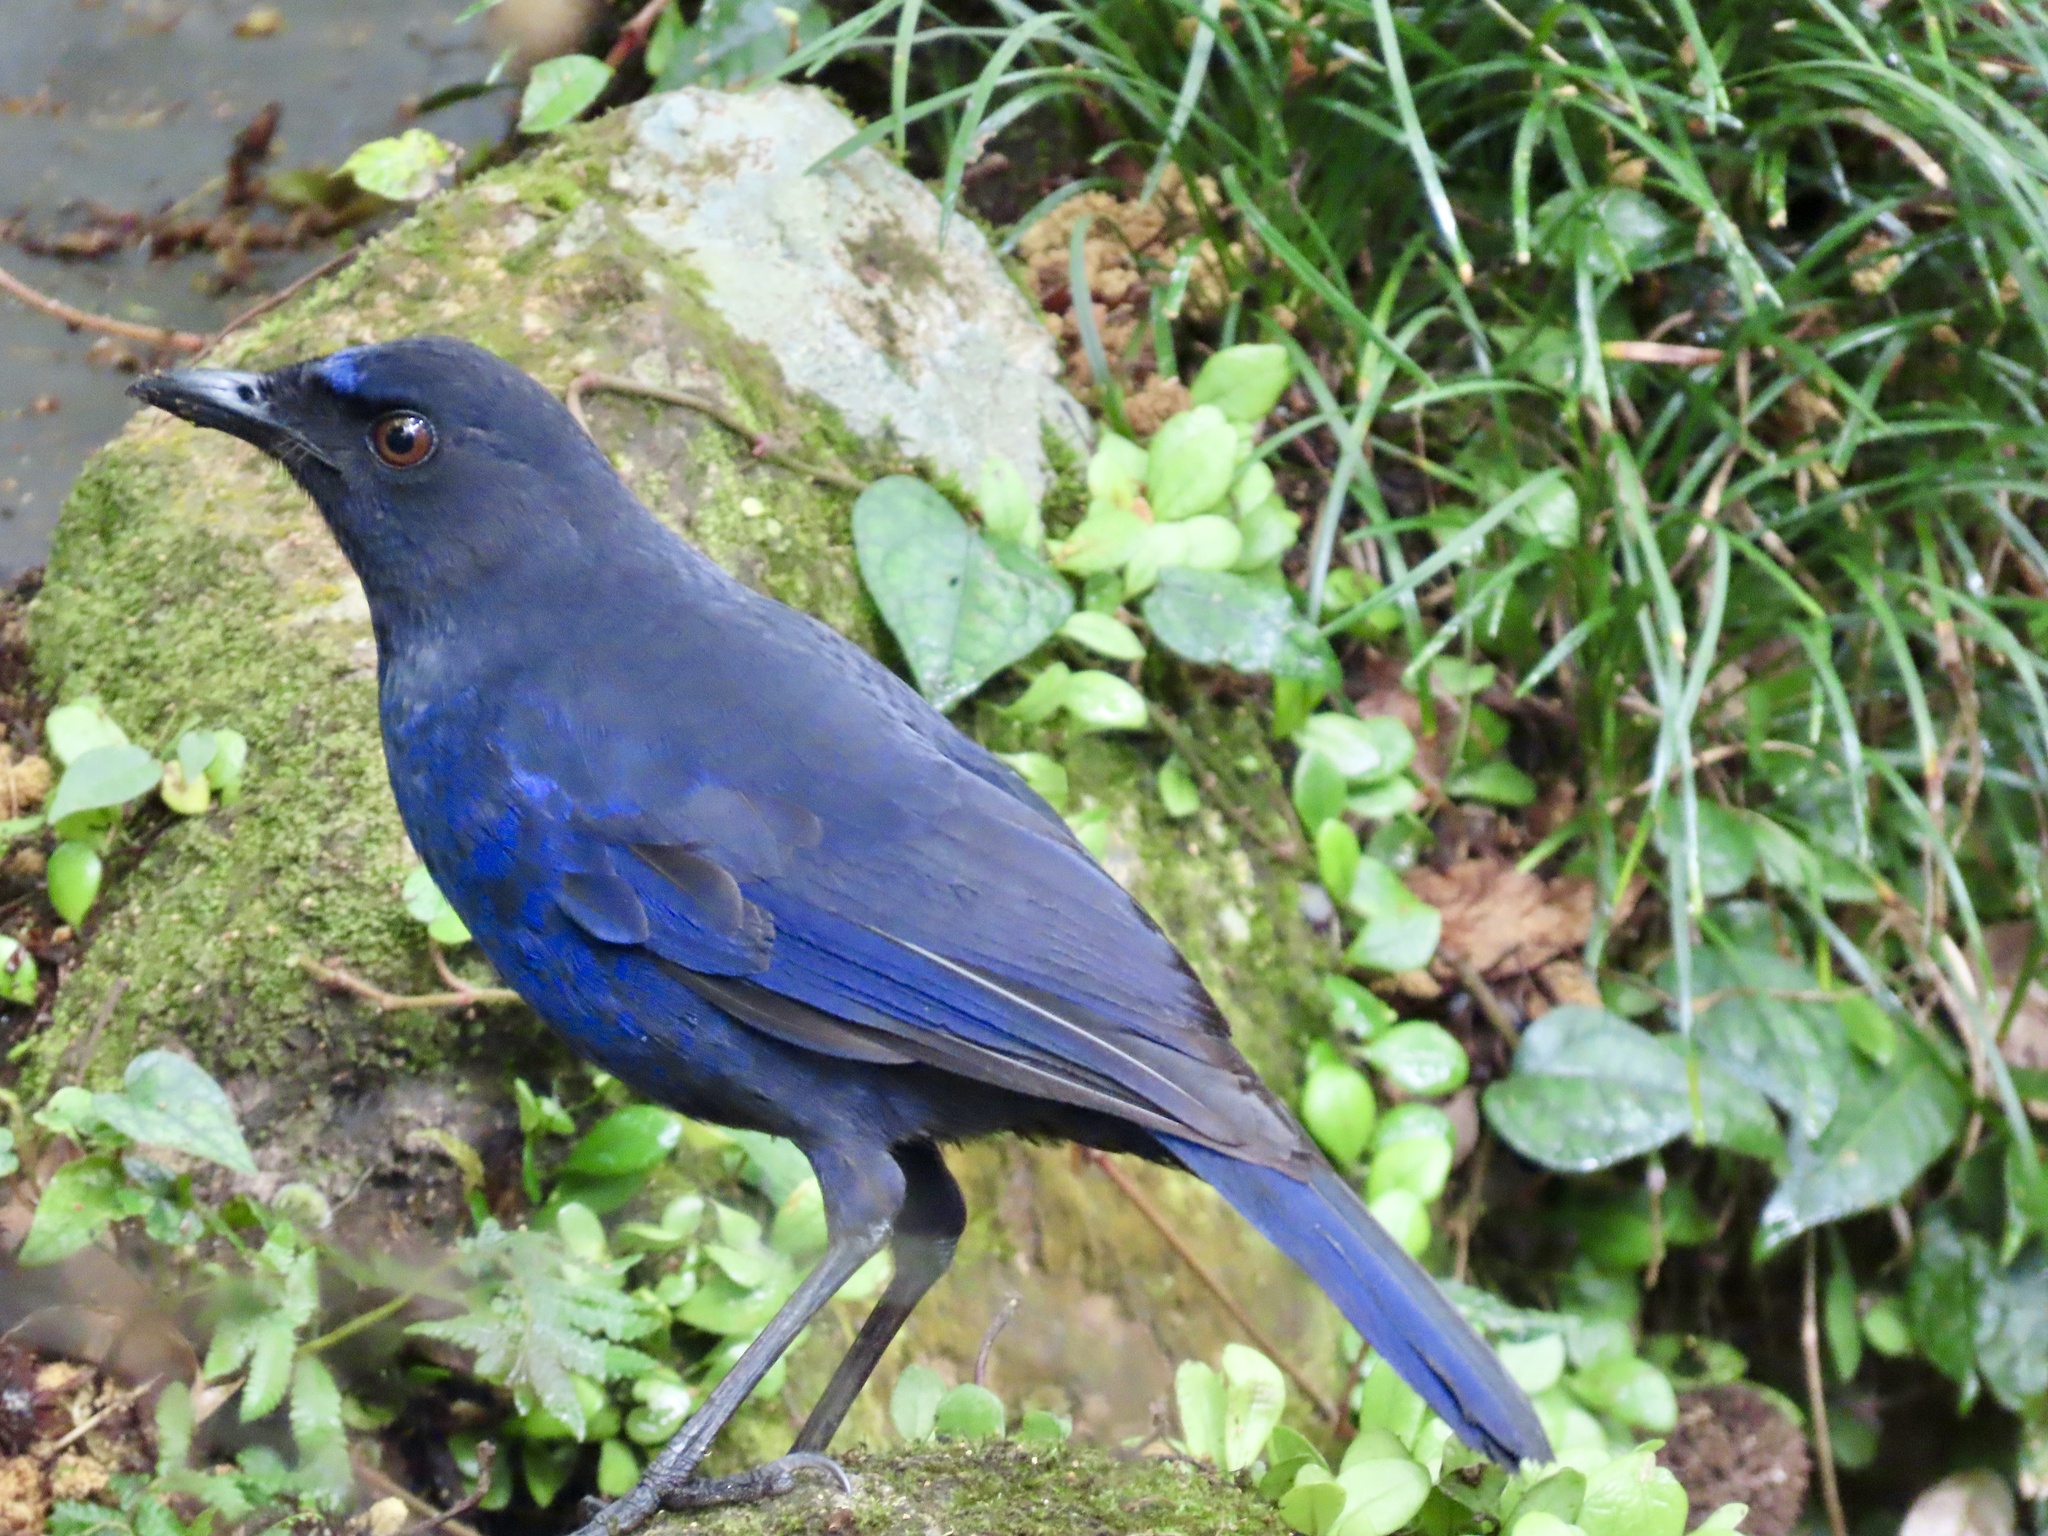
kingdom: Animalia
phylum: Chordata
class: Aves
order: Passeriformes
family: Muscicapidae
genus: Myophonus
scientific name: Myophonus insularis
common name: Taiwan whistling-thrush
